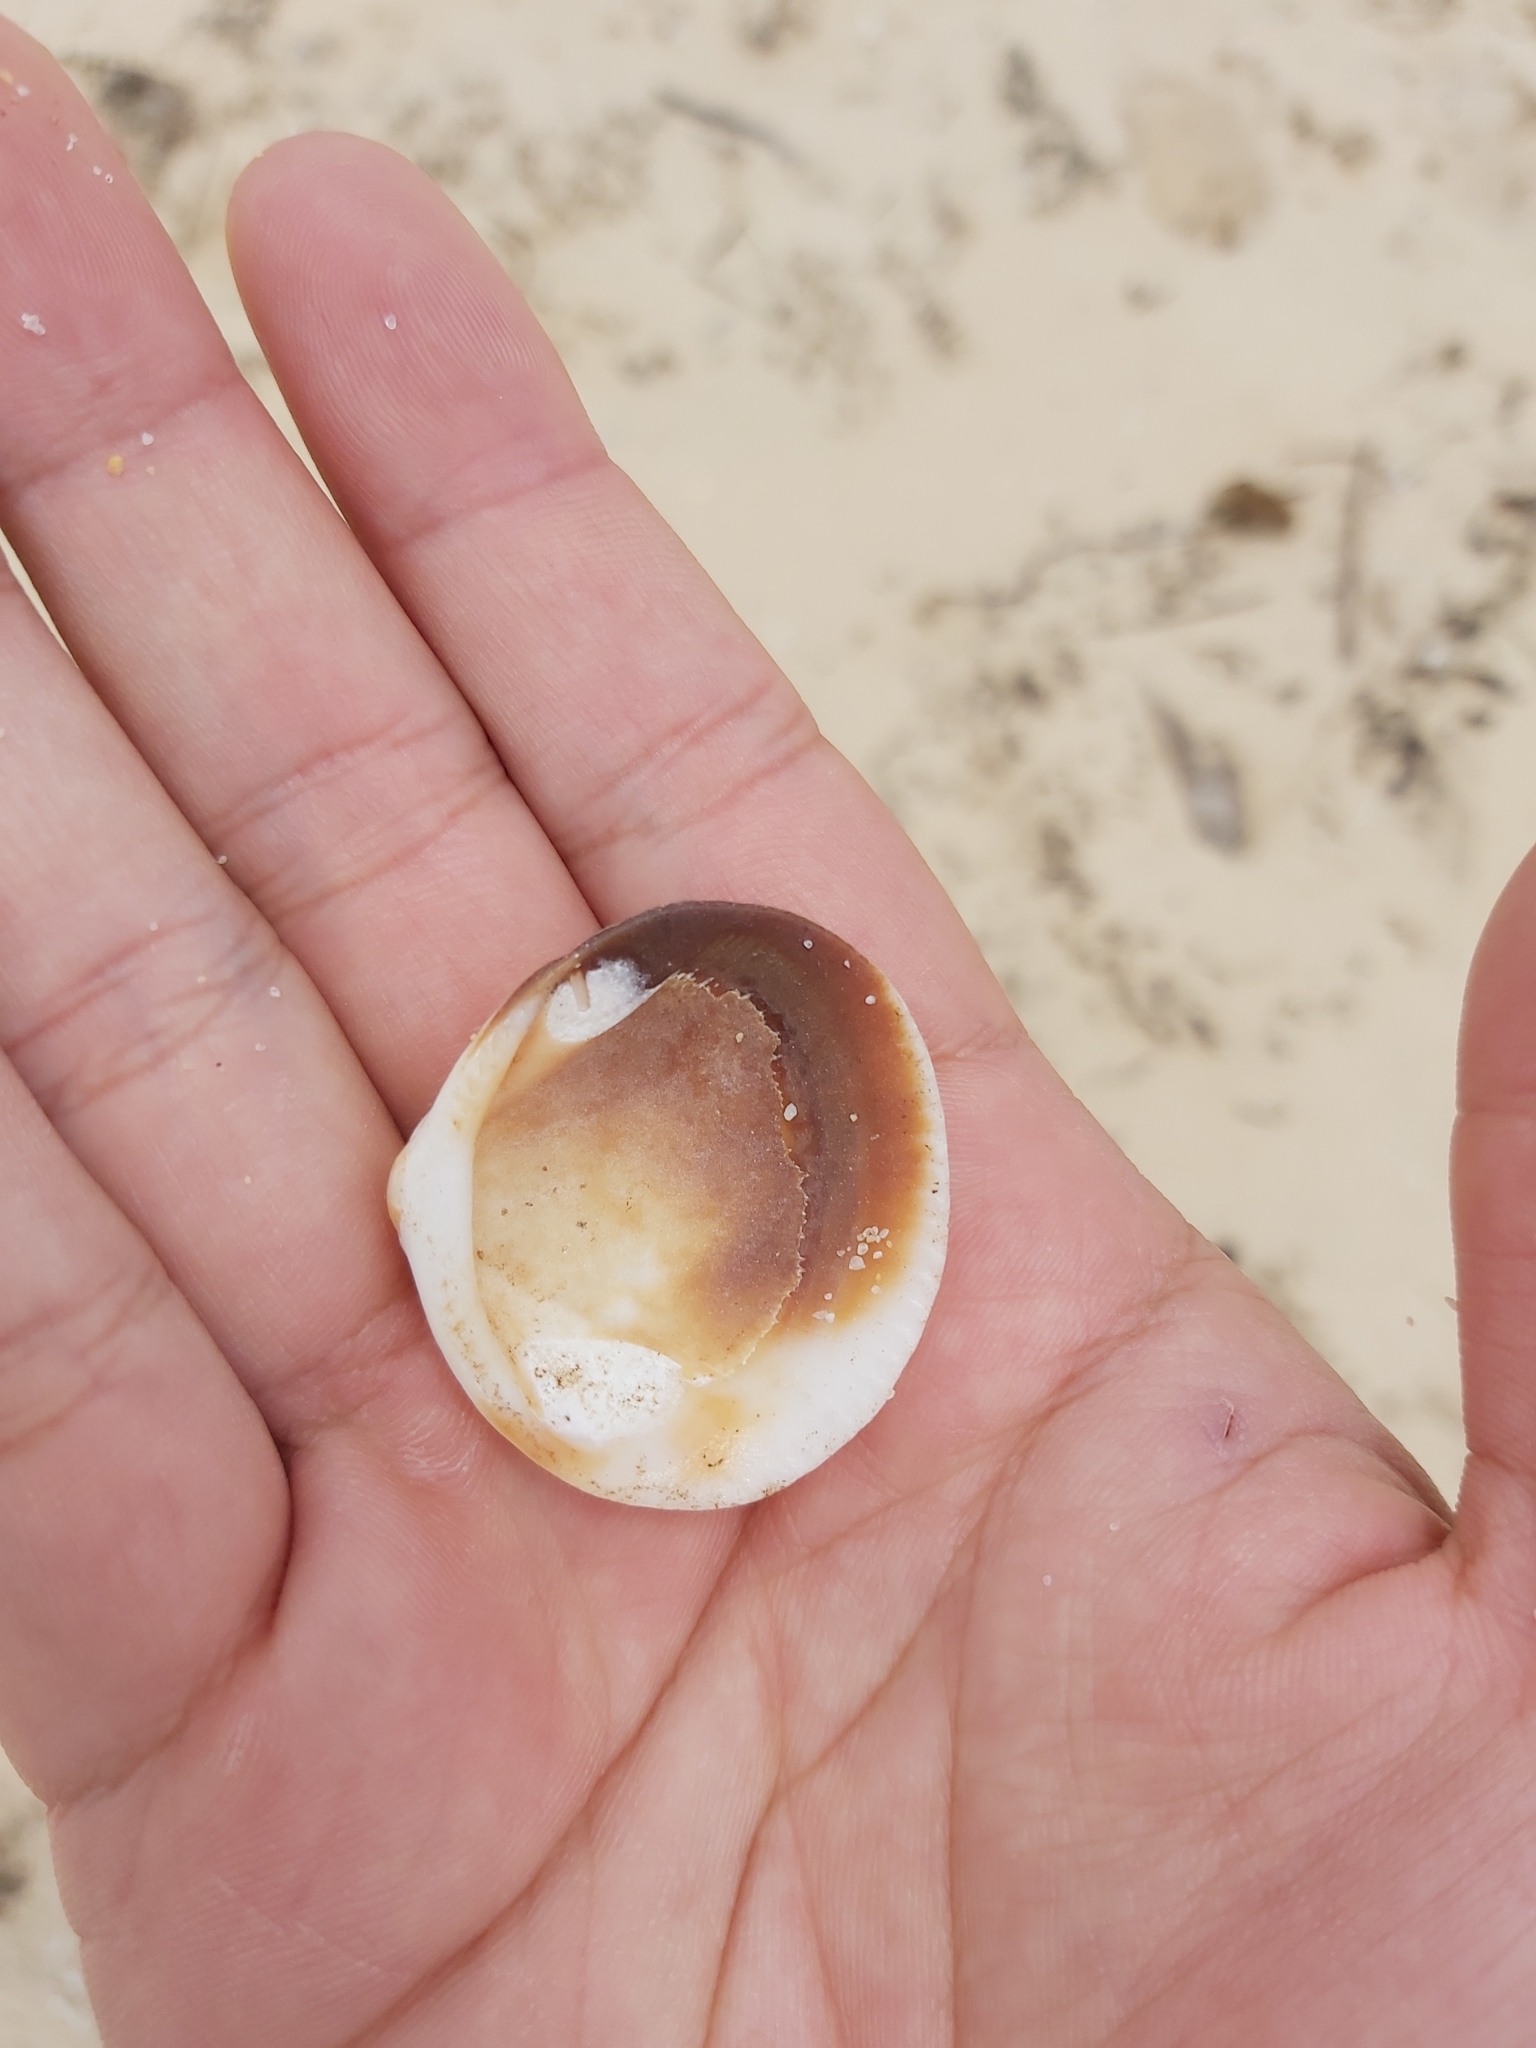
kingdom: Animalia
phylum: Mollusca
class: Bivalvia
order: Arcida
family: Glycymerididae
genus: Glycymeris
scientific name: Glycymeris grayana
